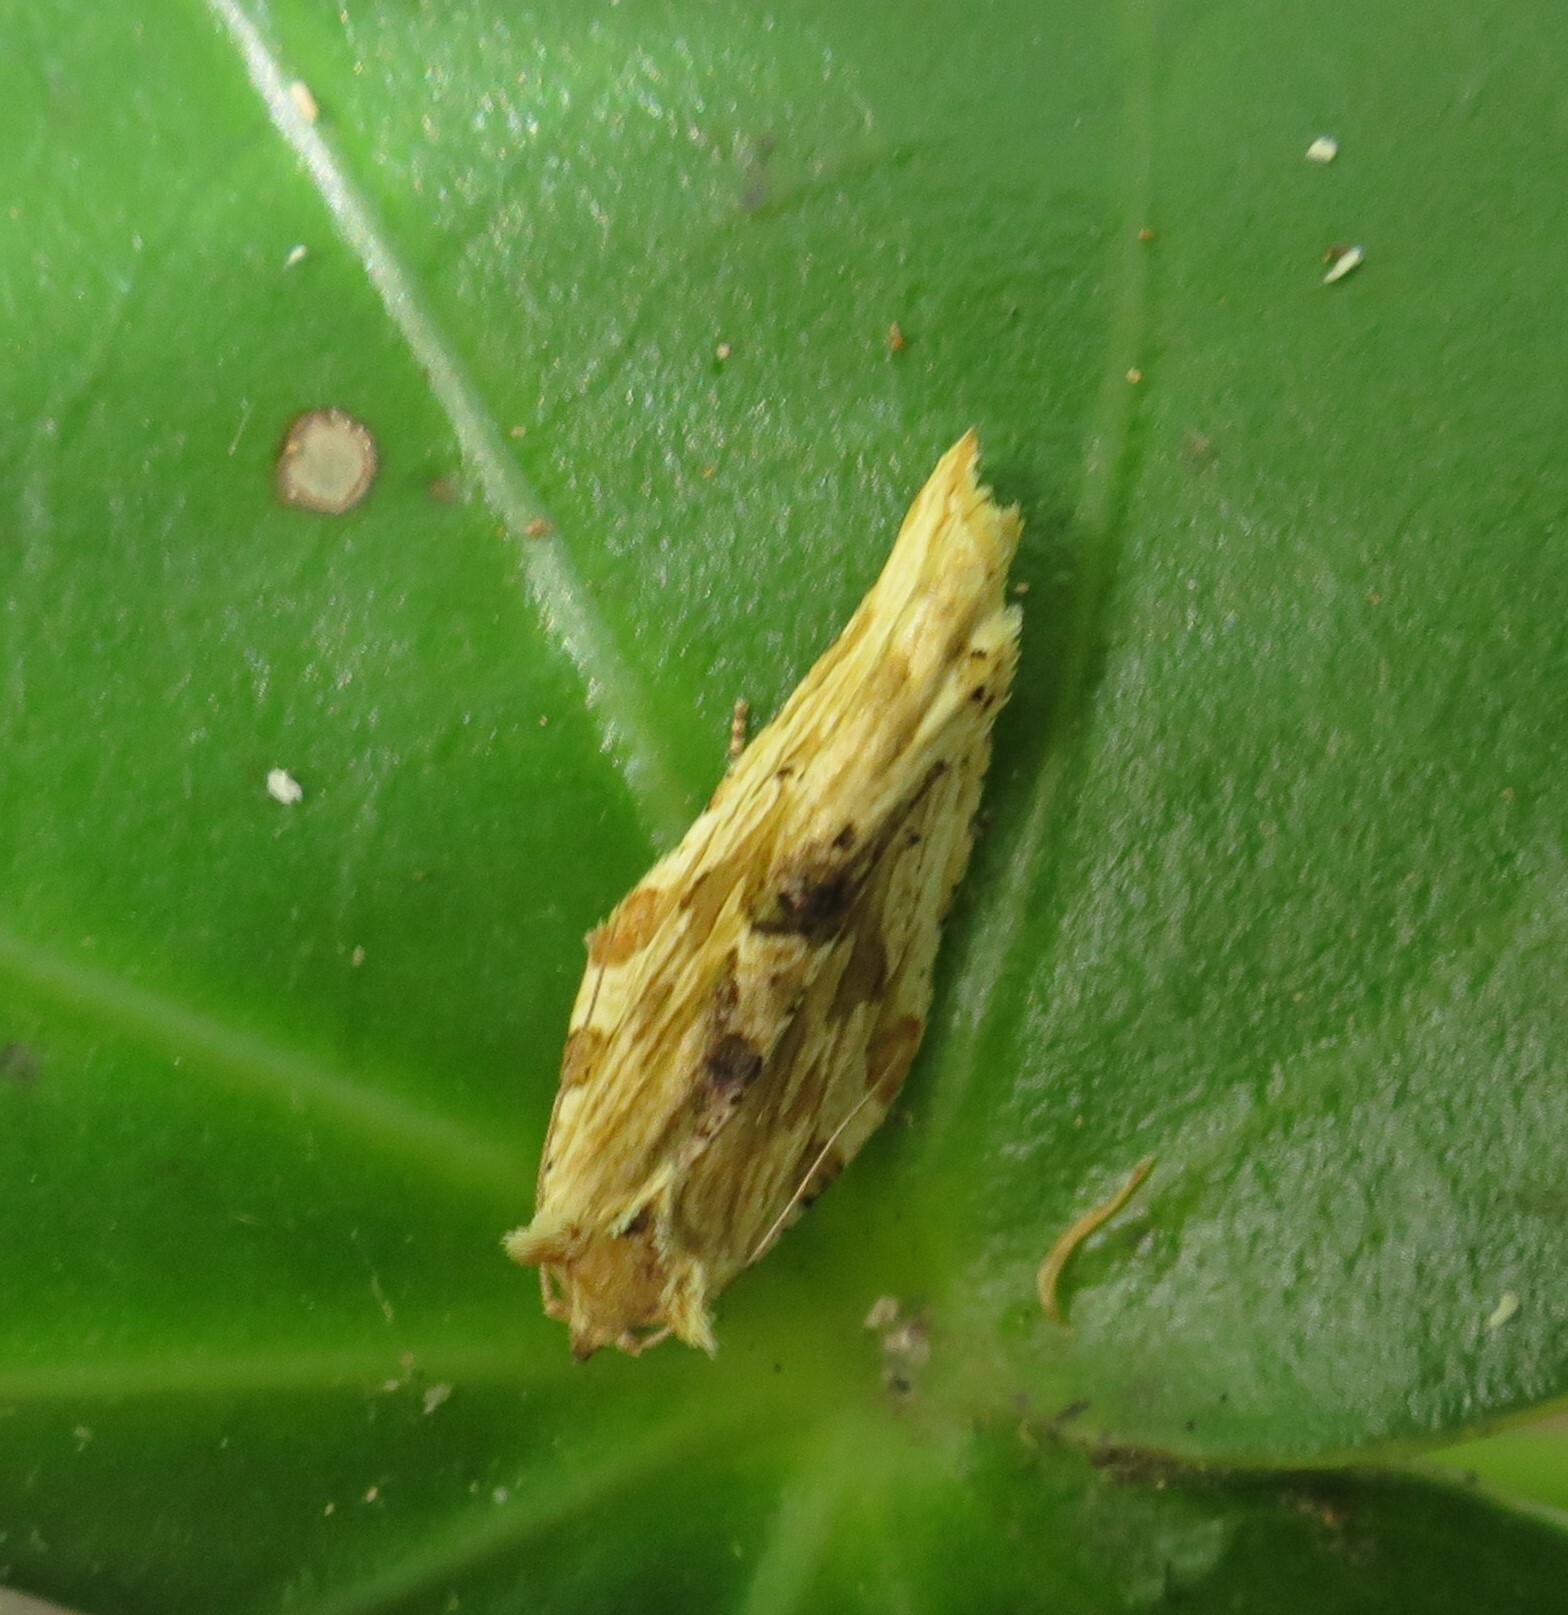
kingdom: Animalia
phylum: Arthropoda
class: Insecta
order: Lepidoptera
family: Tortricidae
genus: Epalxiphora
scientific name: Epalxiphora axenana
